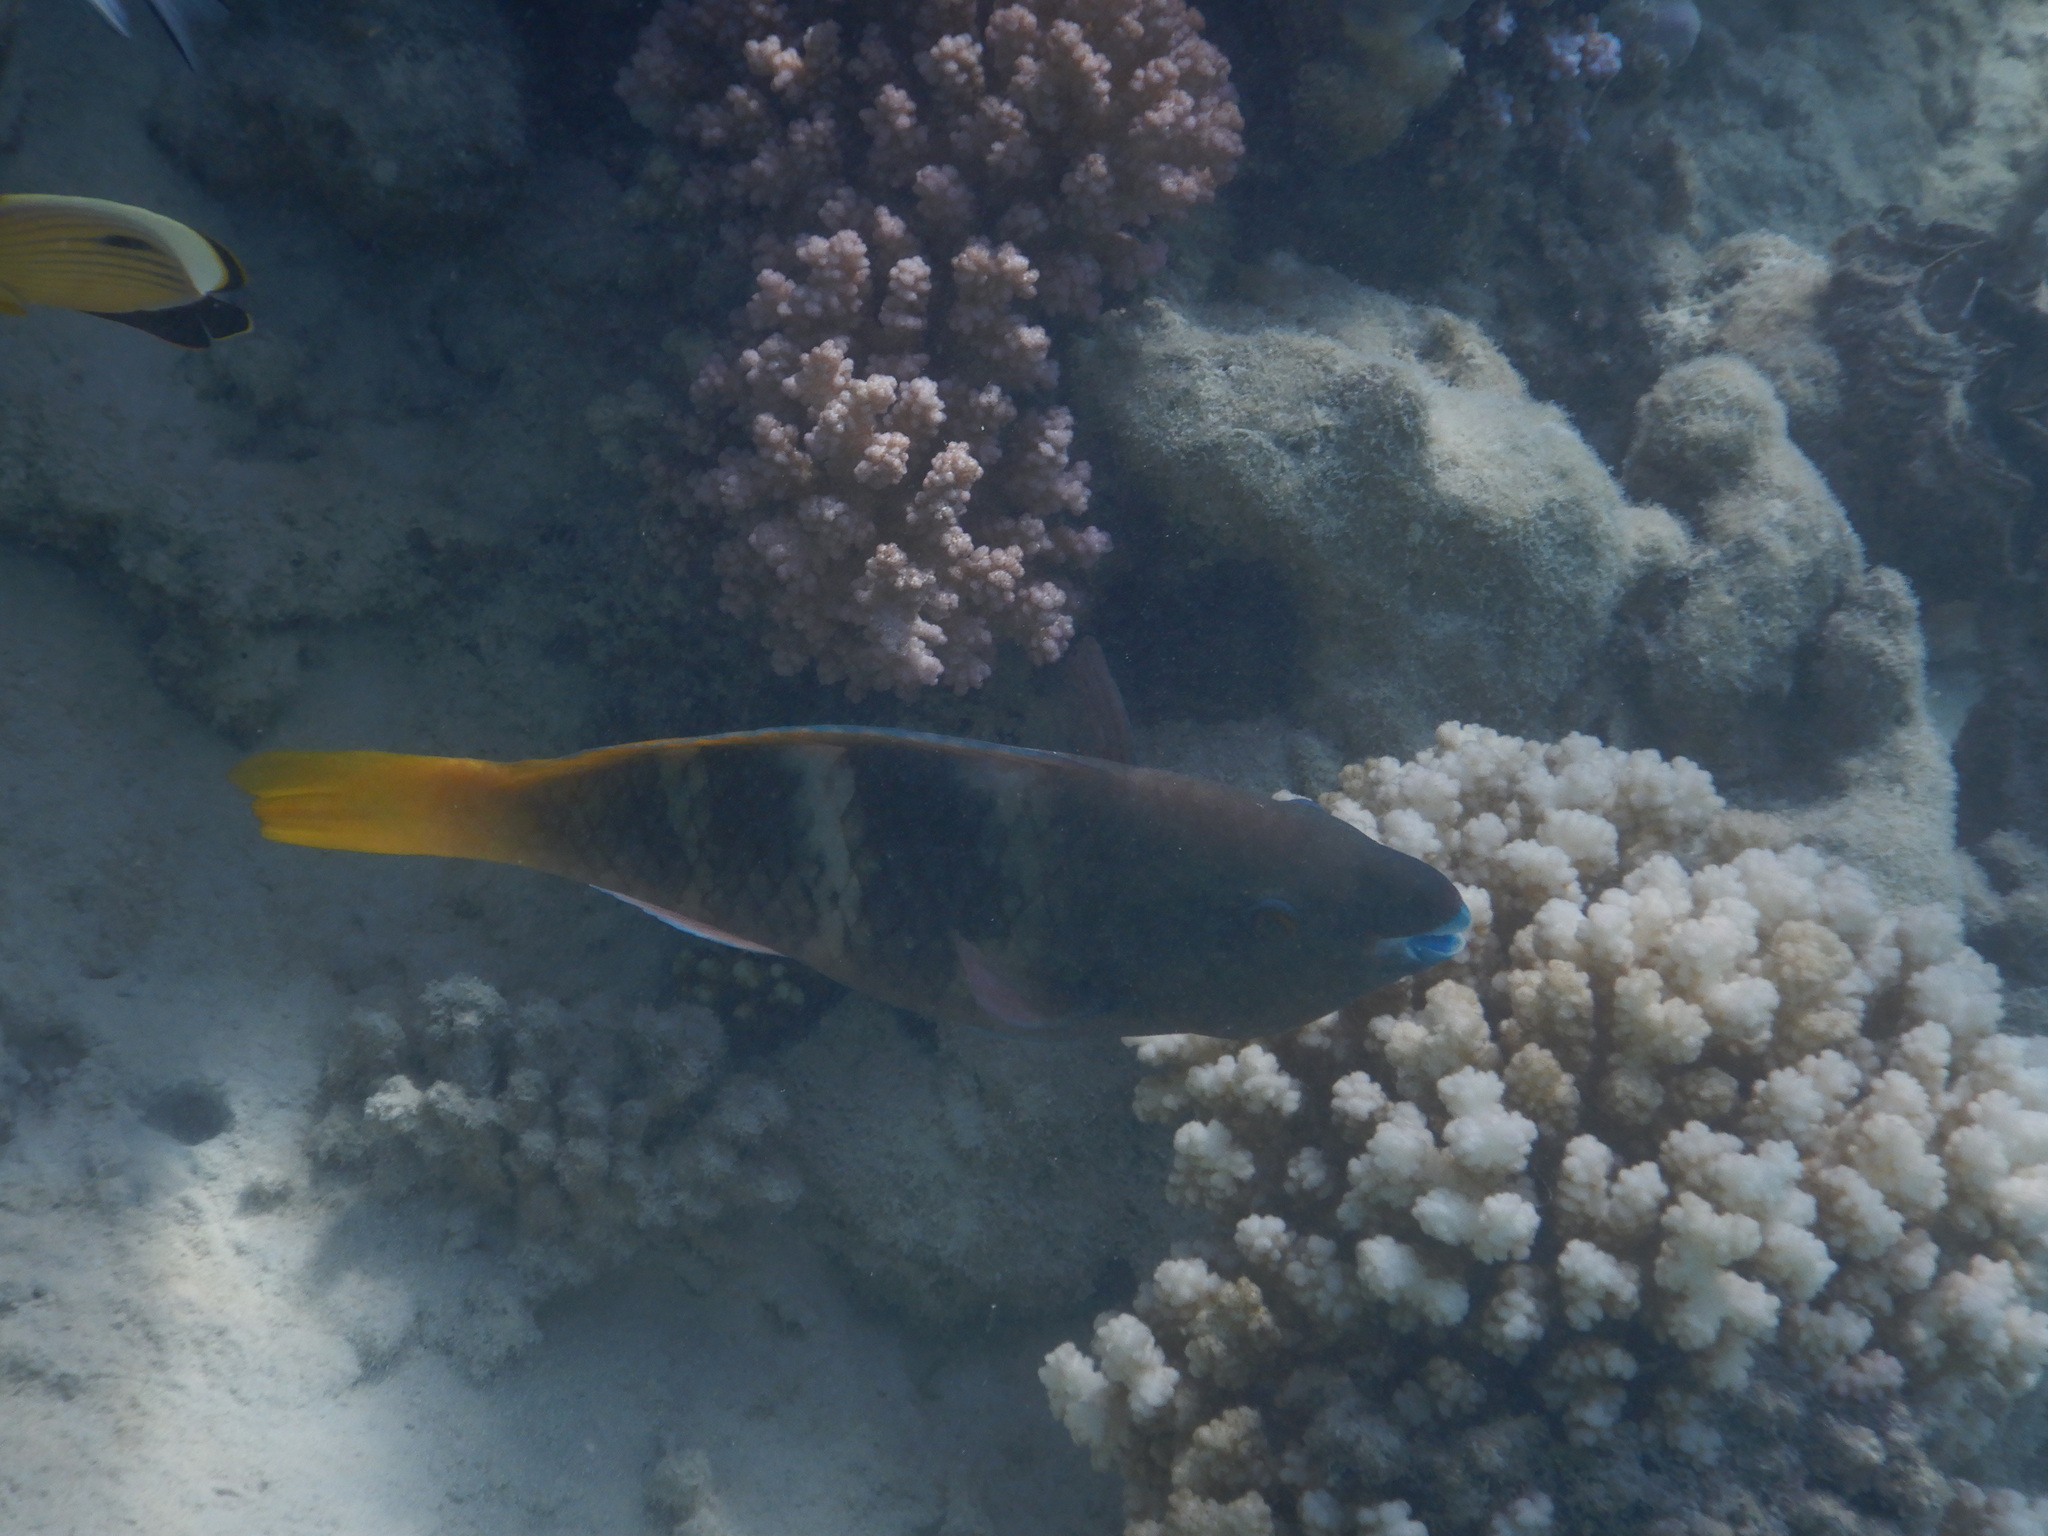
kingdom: Animalia
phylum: Chordata
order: Perciformes
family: Scaridae
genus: Scarus
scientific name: Scarus ferrugineus
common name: Rusty parrotfish
